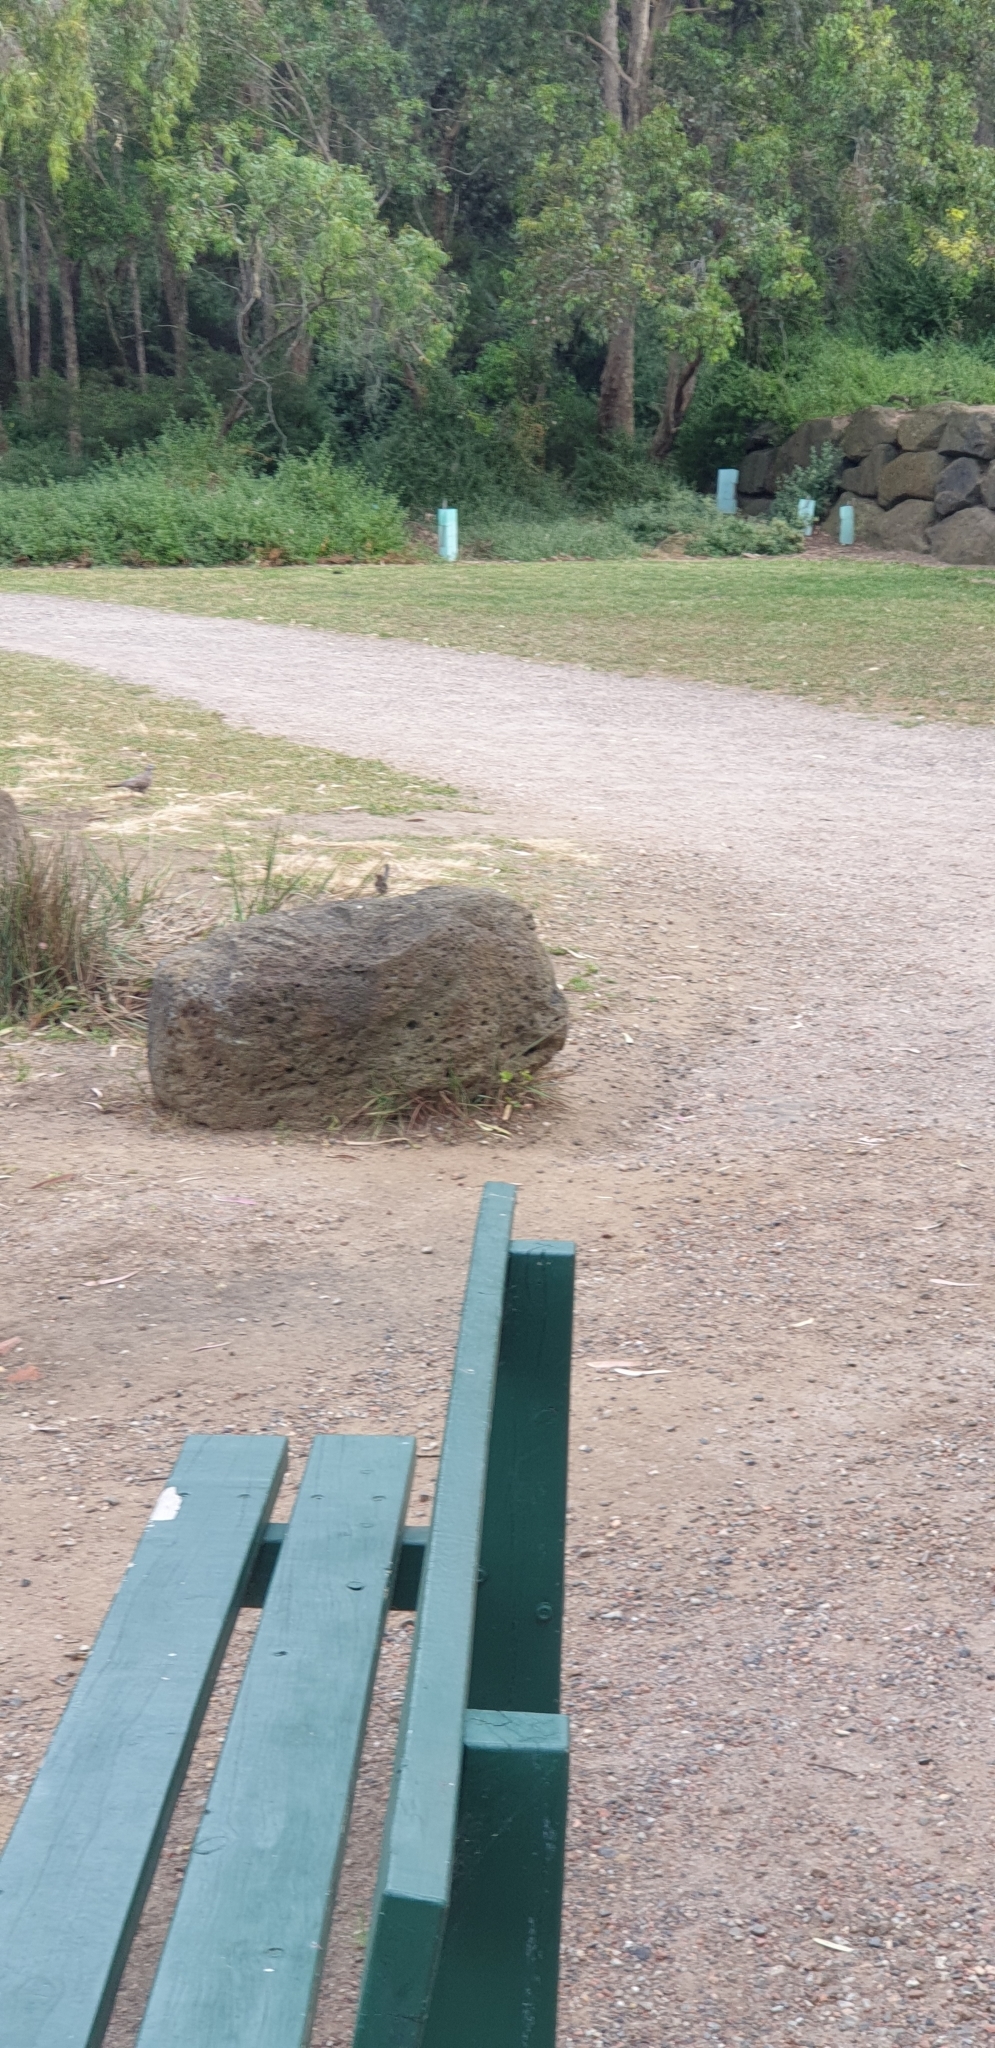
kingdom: Animalia
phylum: Chordata
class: Aves
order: Passeriformes
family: Maluridae
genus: Malurus
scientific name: Malurus cyaneus
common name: Superb fairywren
